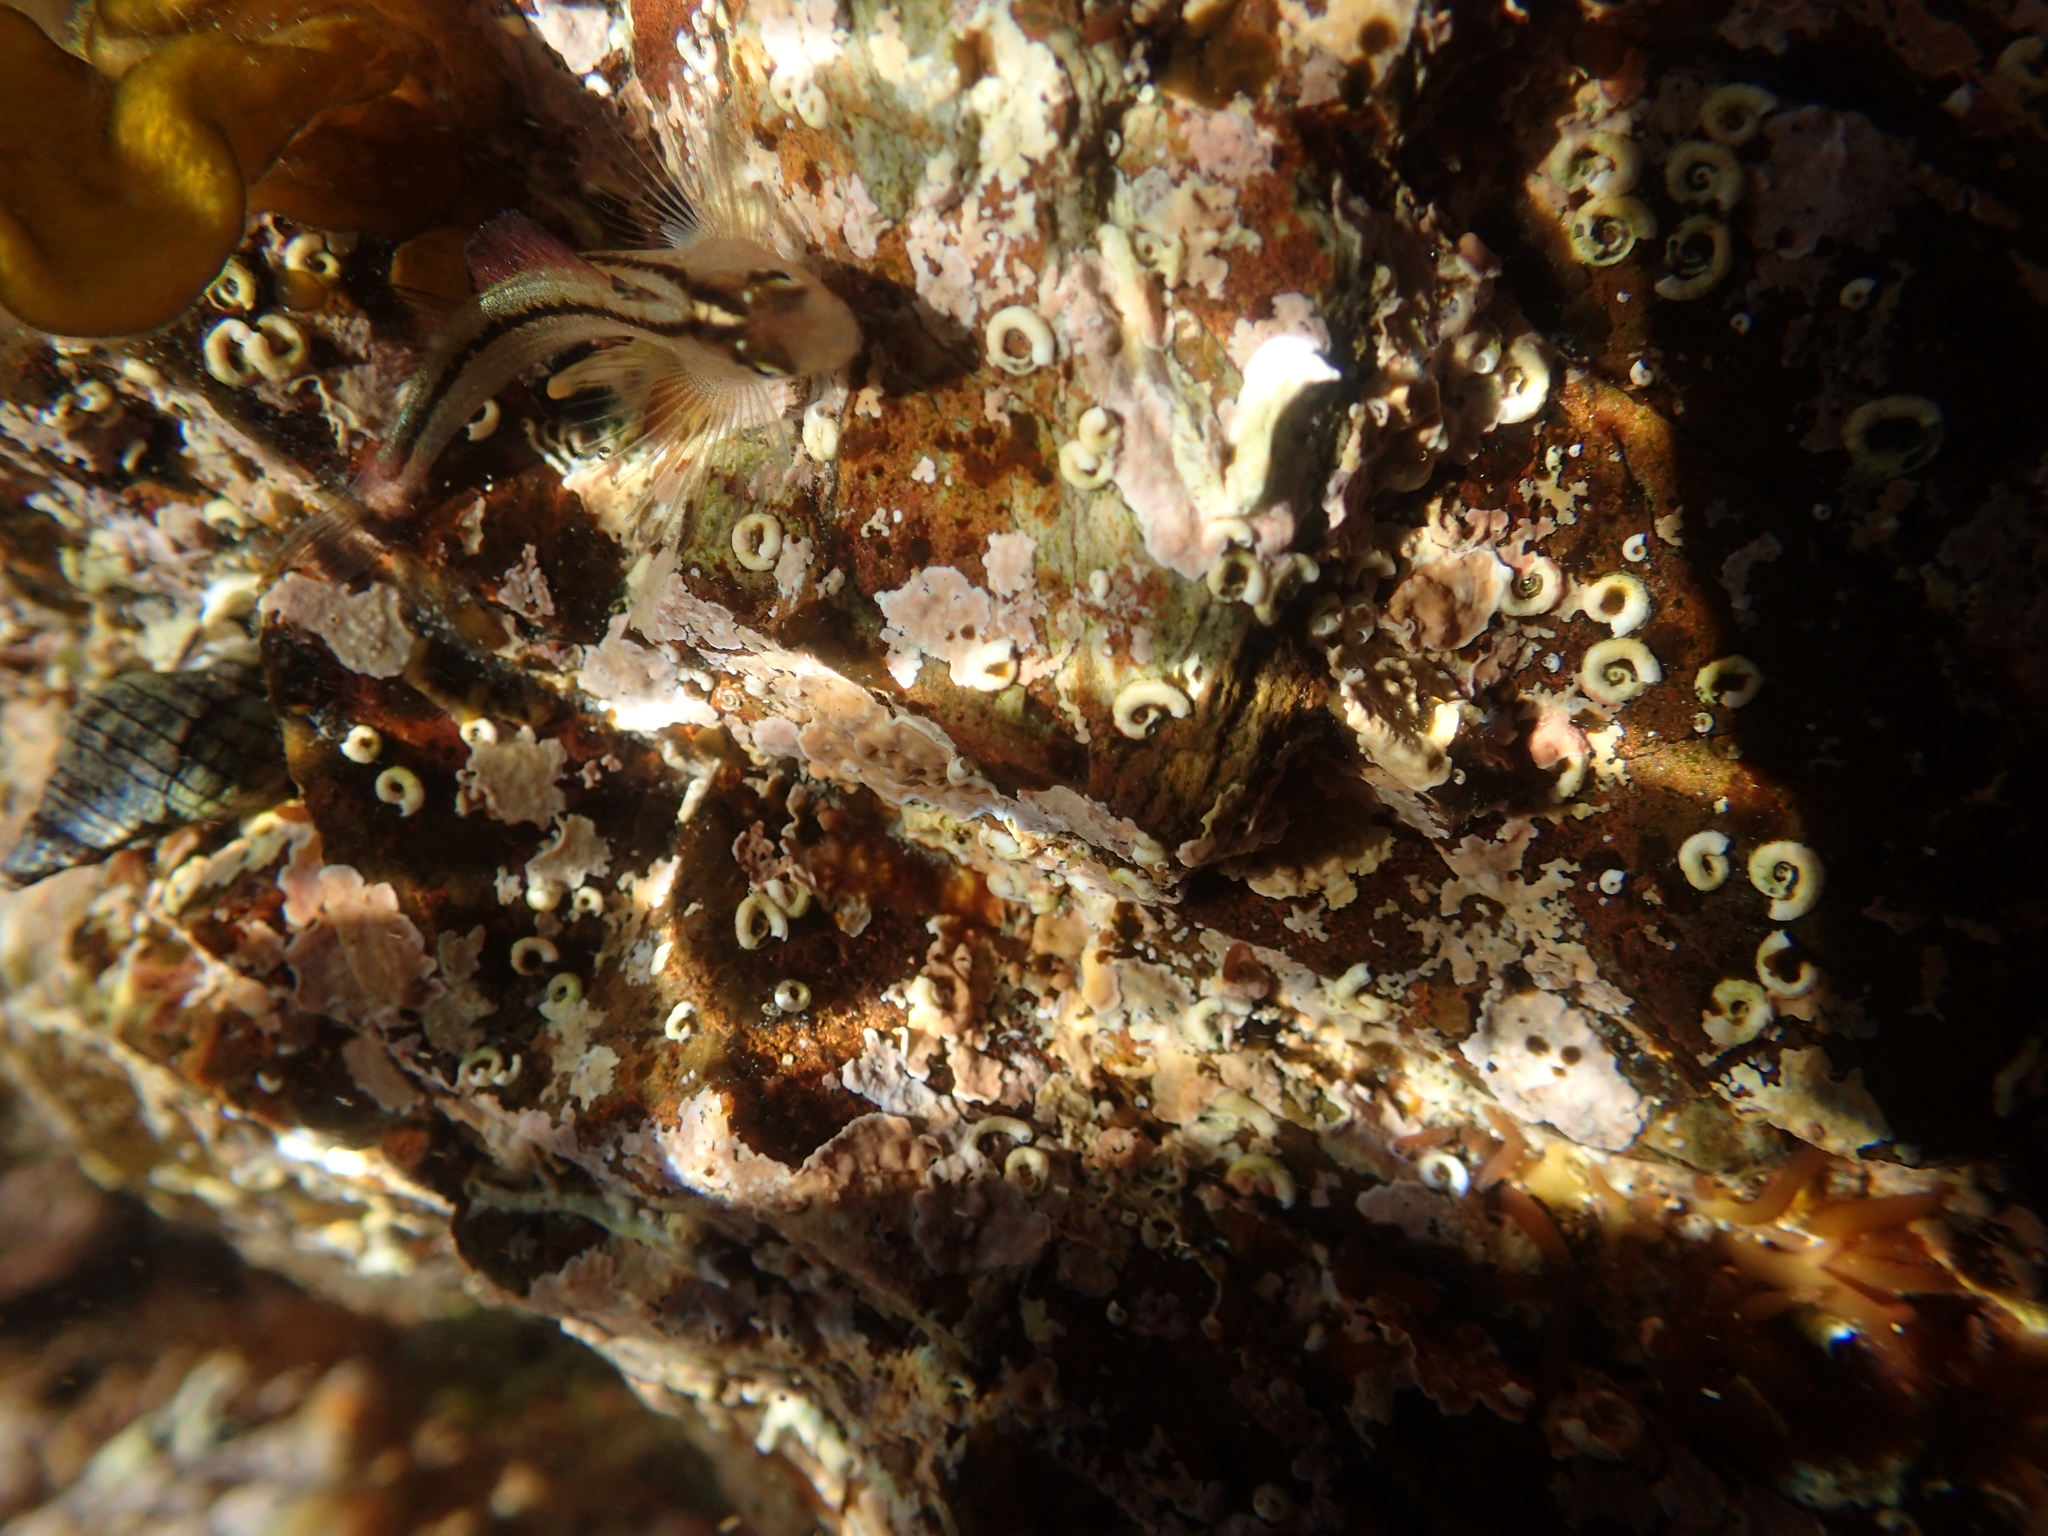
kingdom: Animalia
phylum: Chordata
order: Perciformes
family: Tripterygiidae
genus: Forsterygion
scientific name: Forsterygion lapillum
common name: Common triplefin
